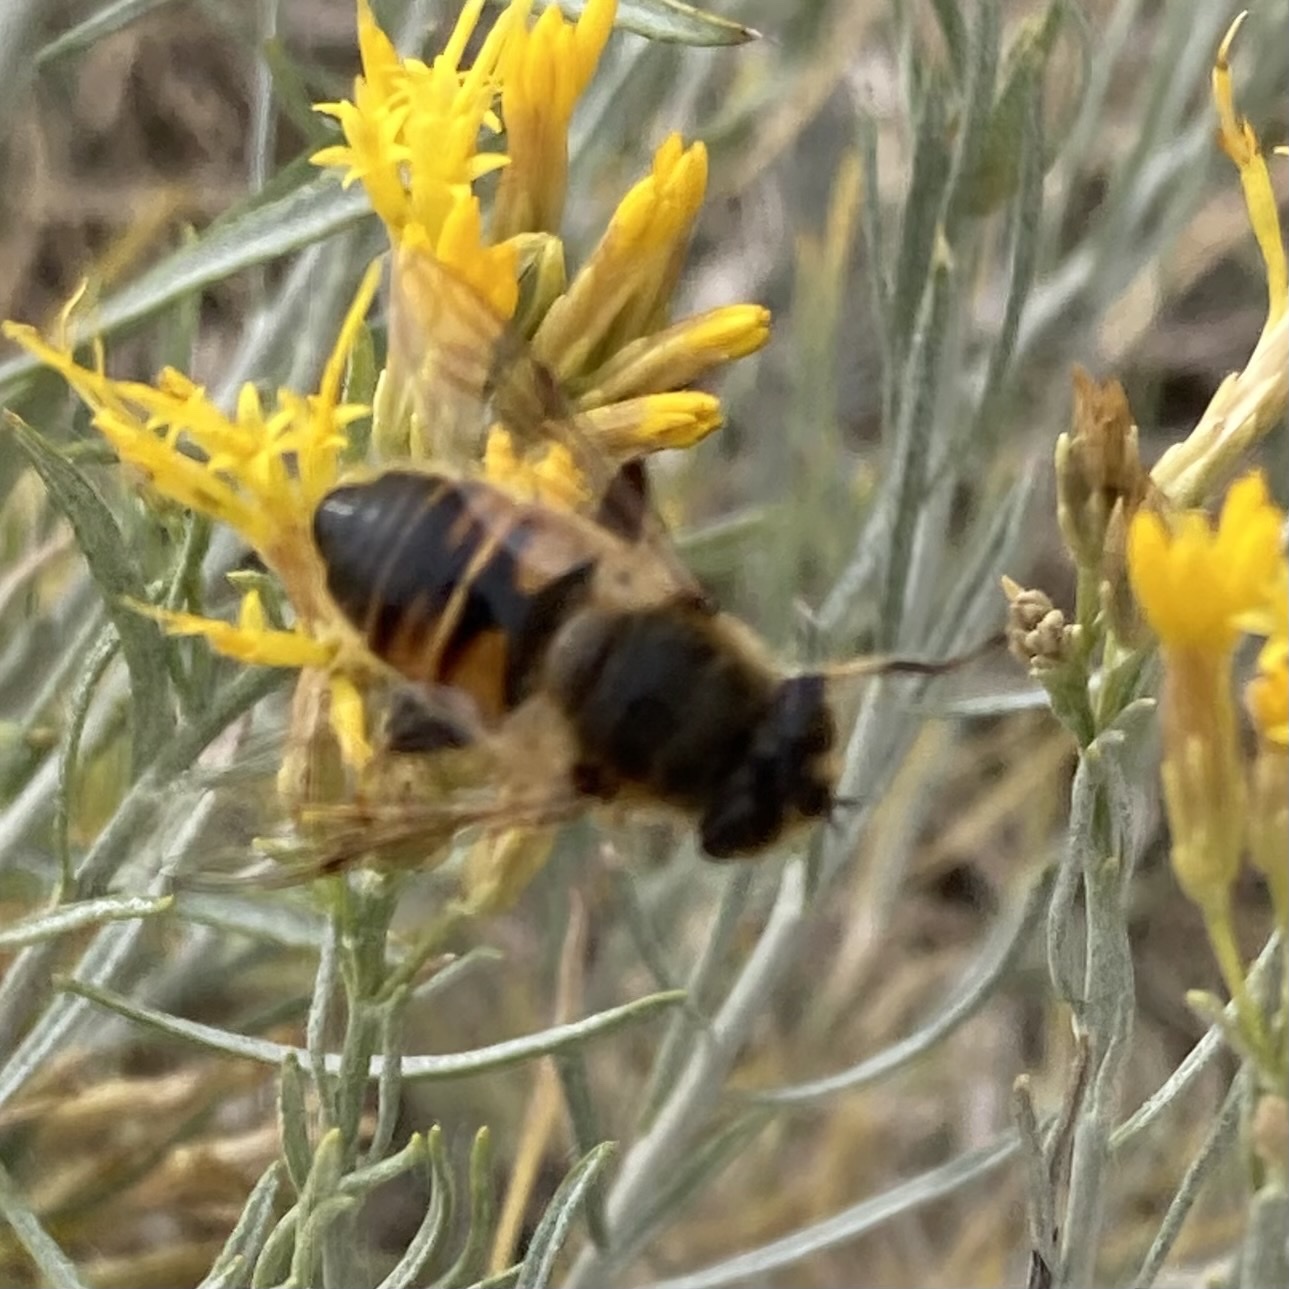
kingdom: Animalia
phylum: Arthropoda
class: Insecta
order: Diptera
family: Syrphidae
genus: Eristalis
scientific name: Eristalis tenax
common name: Drone fly
